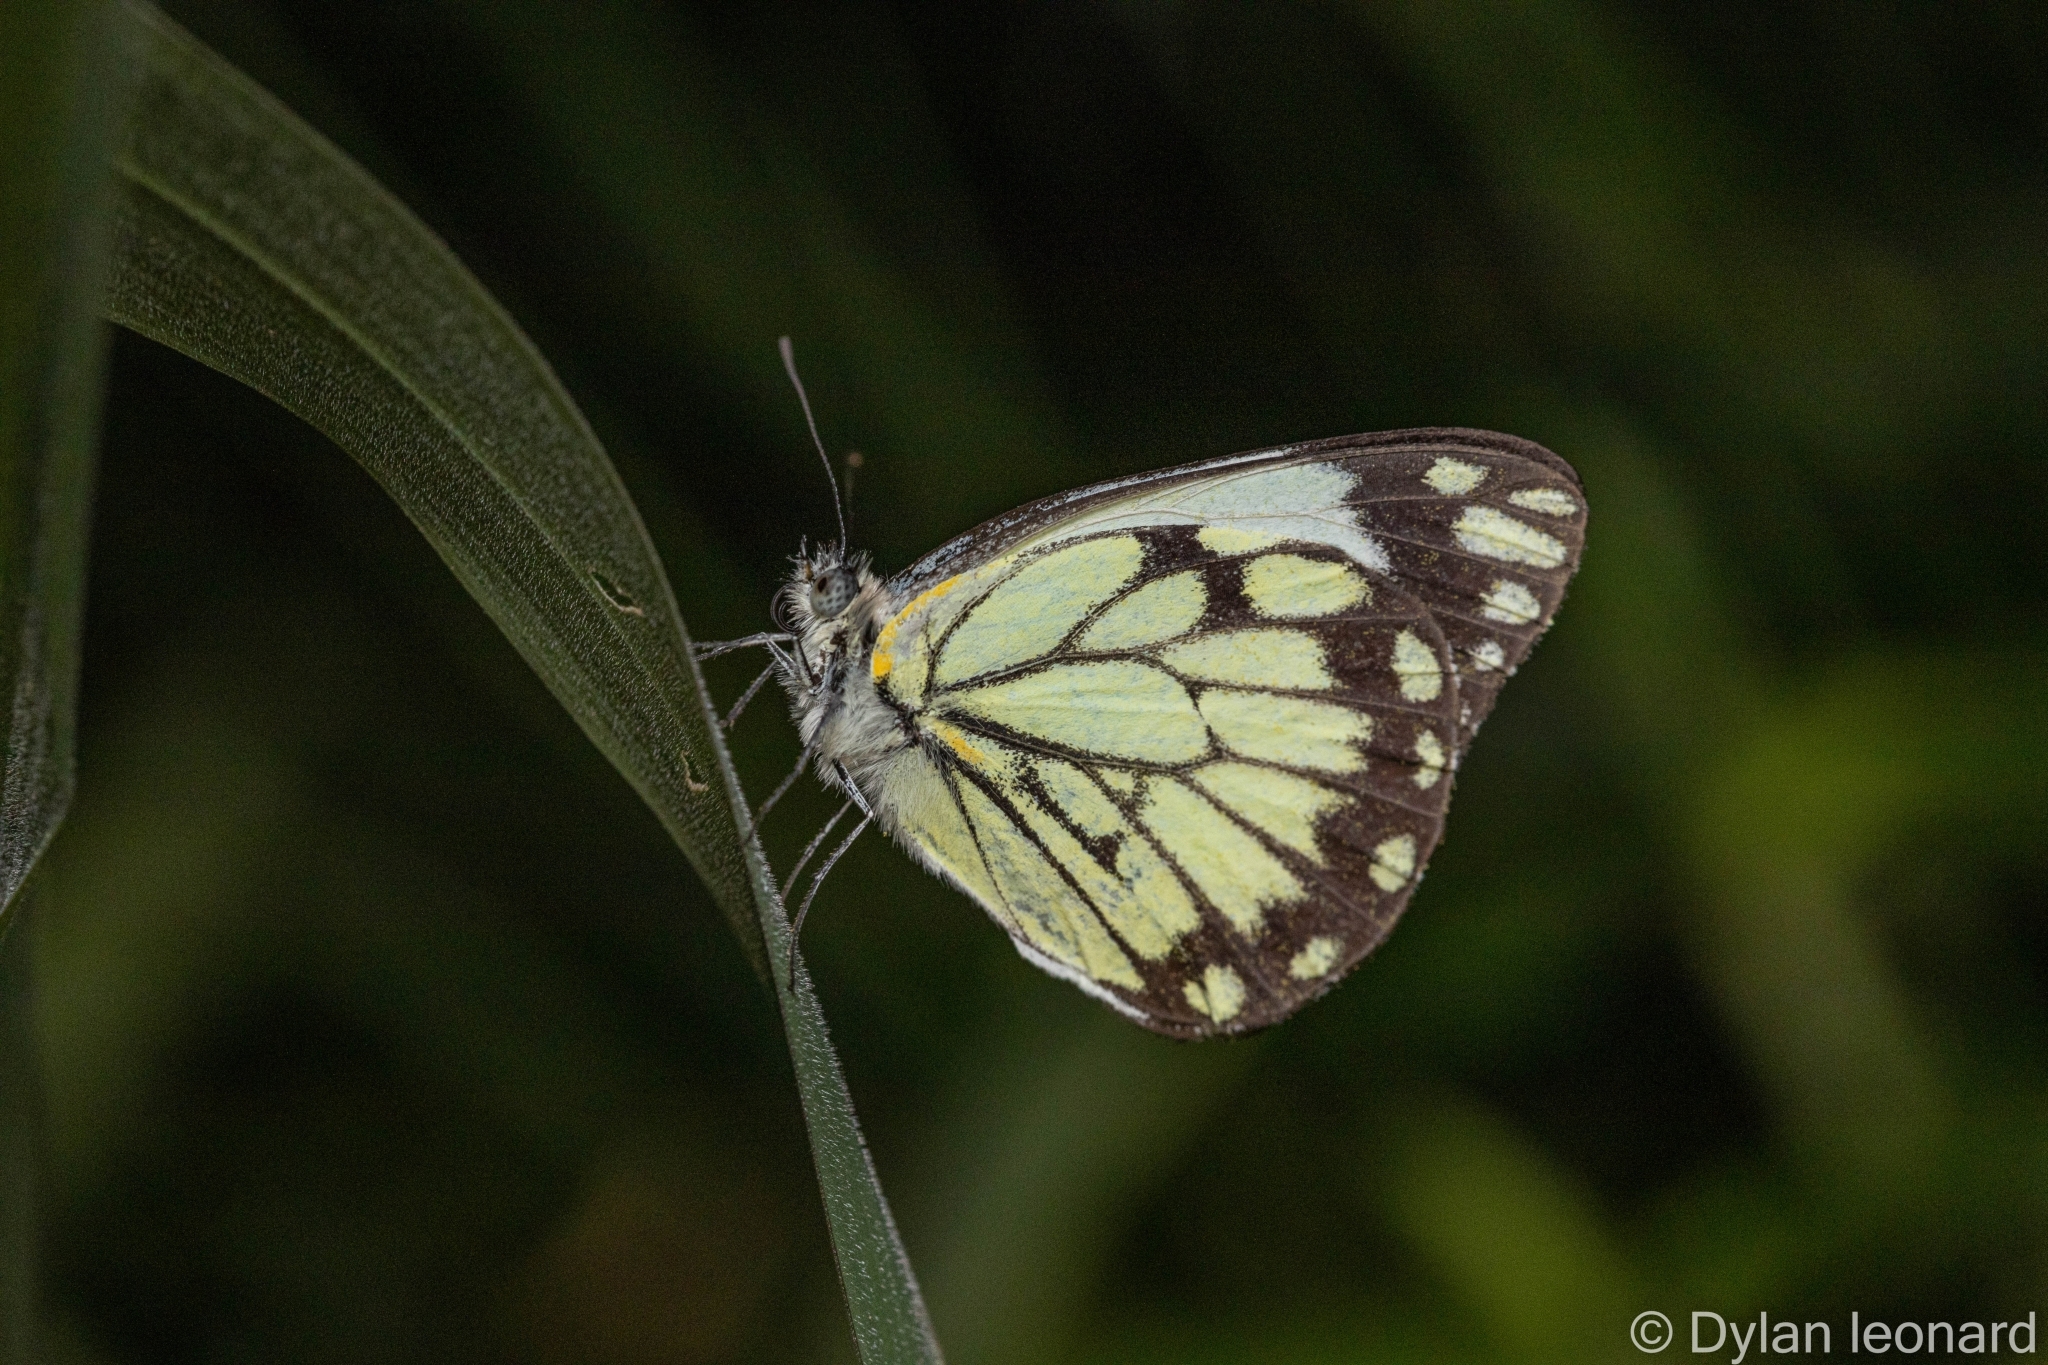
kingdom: Animalia
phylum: Arthropoda
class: Insecta
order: Lepidoptera
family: Pieridae
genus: Belenois
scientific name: Belenois creona
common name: African caper white
